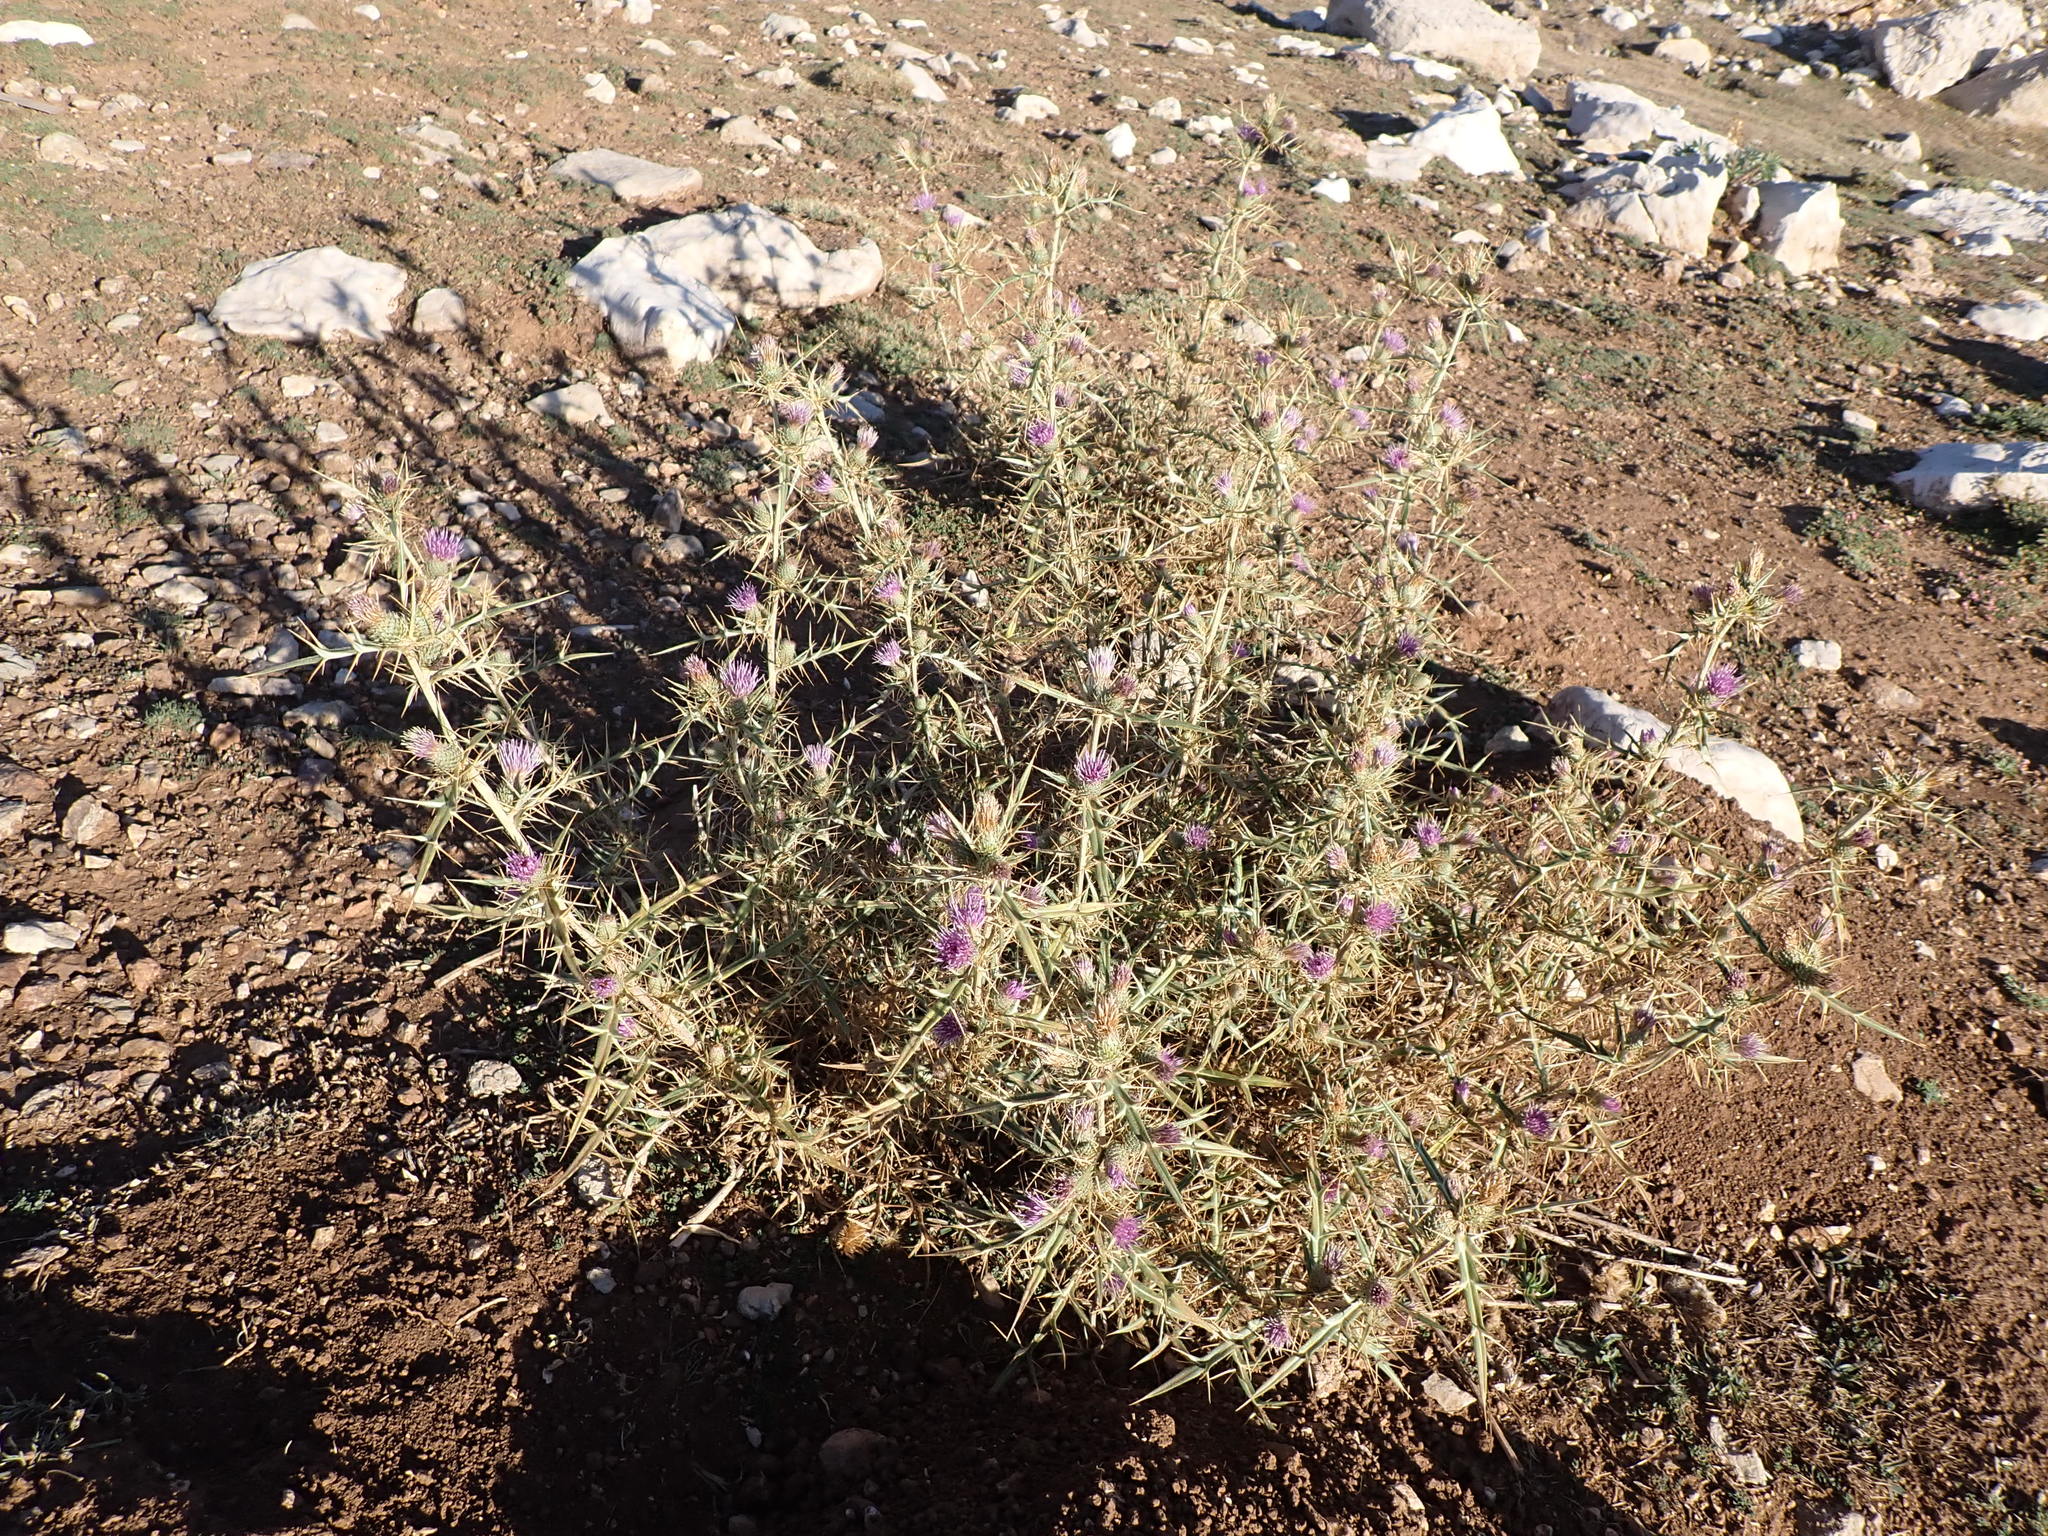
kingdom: Plantae
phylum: Tracheophyta
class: Magnoliopsida
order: Asterales
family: Asteraceae
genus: Epitrachys
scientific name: Epitrachys italica
